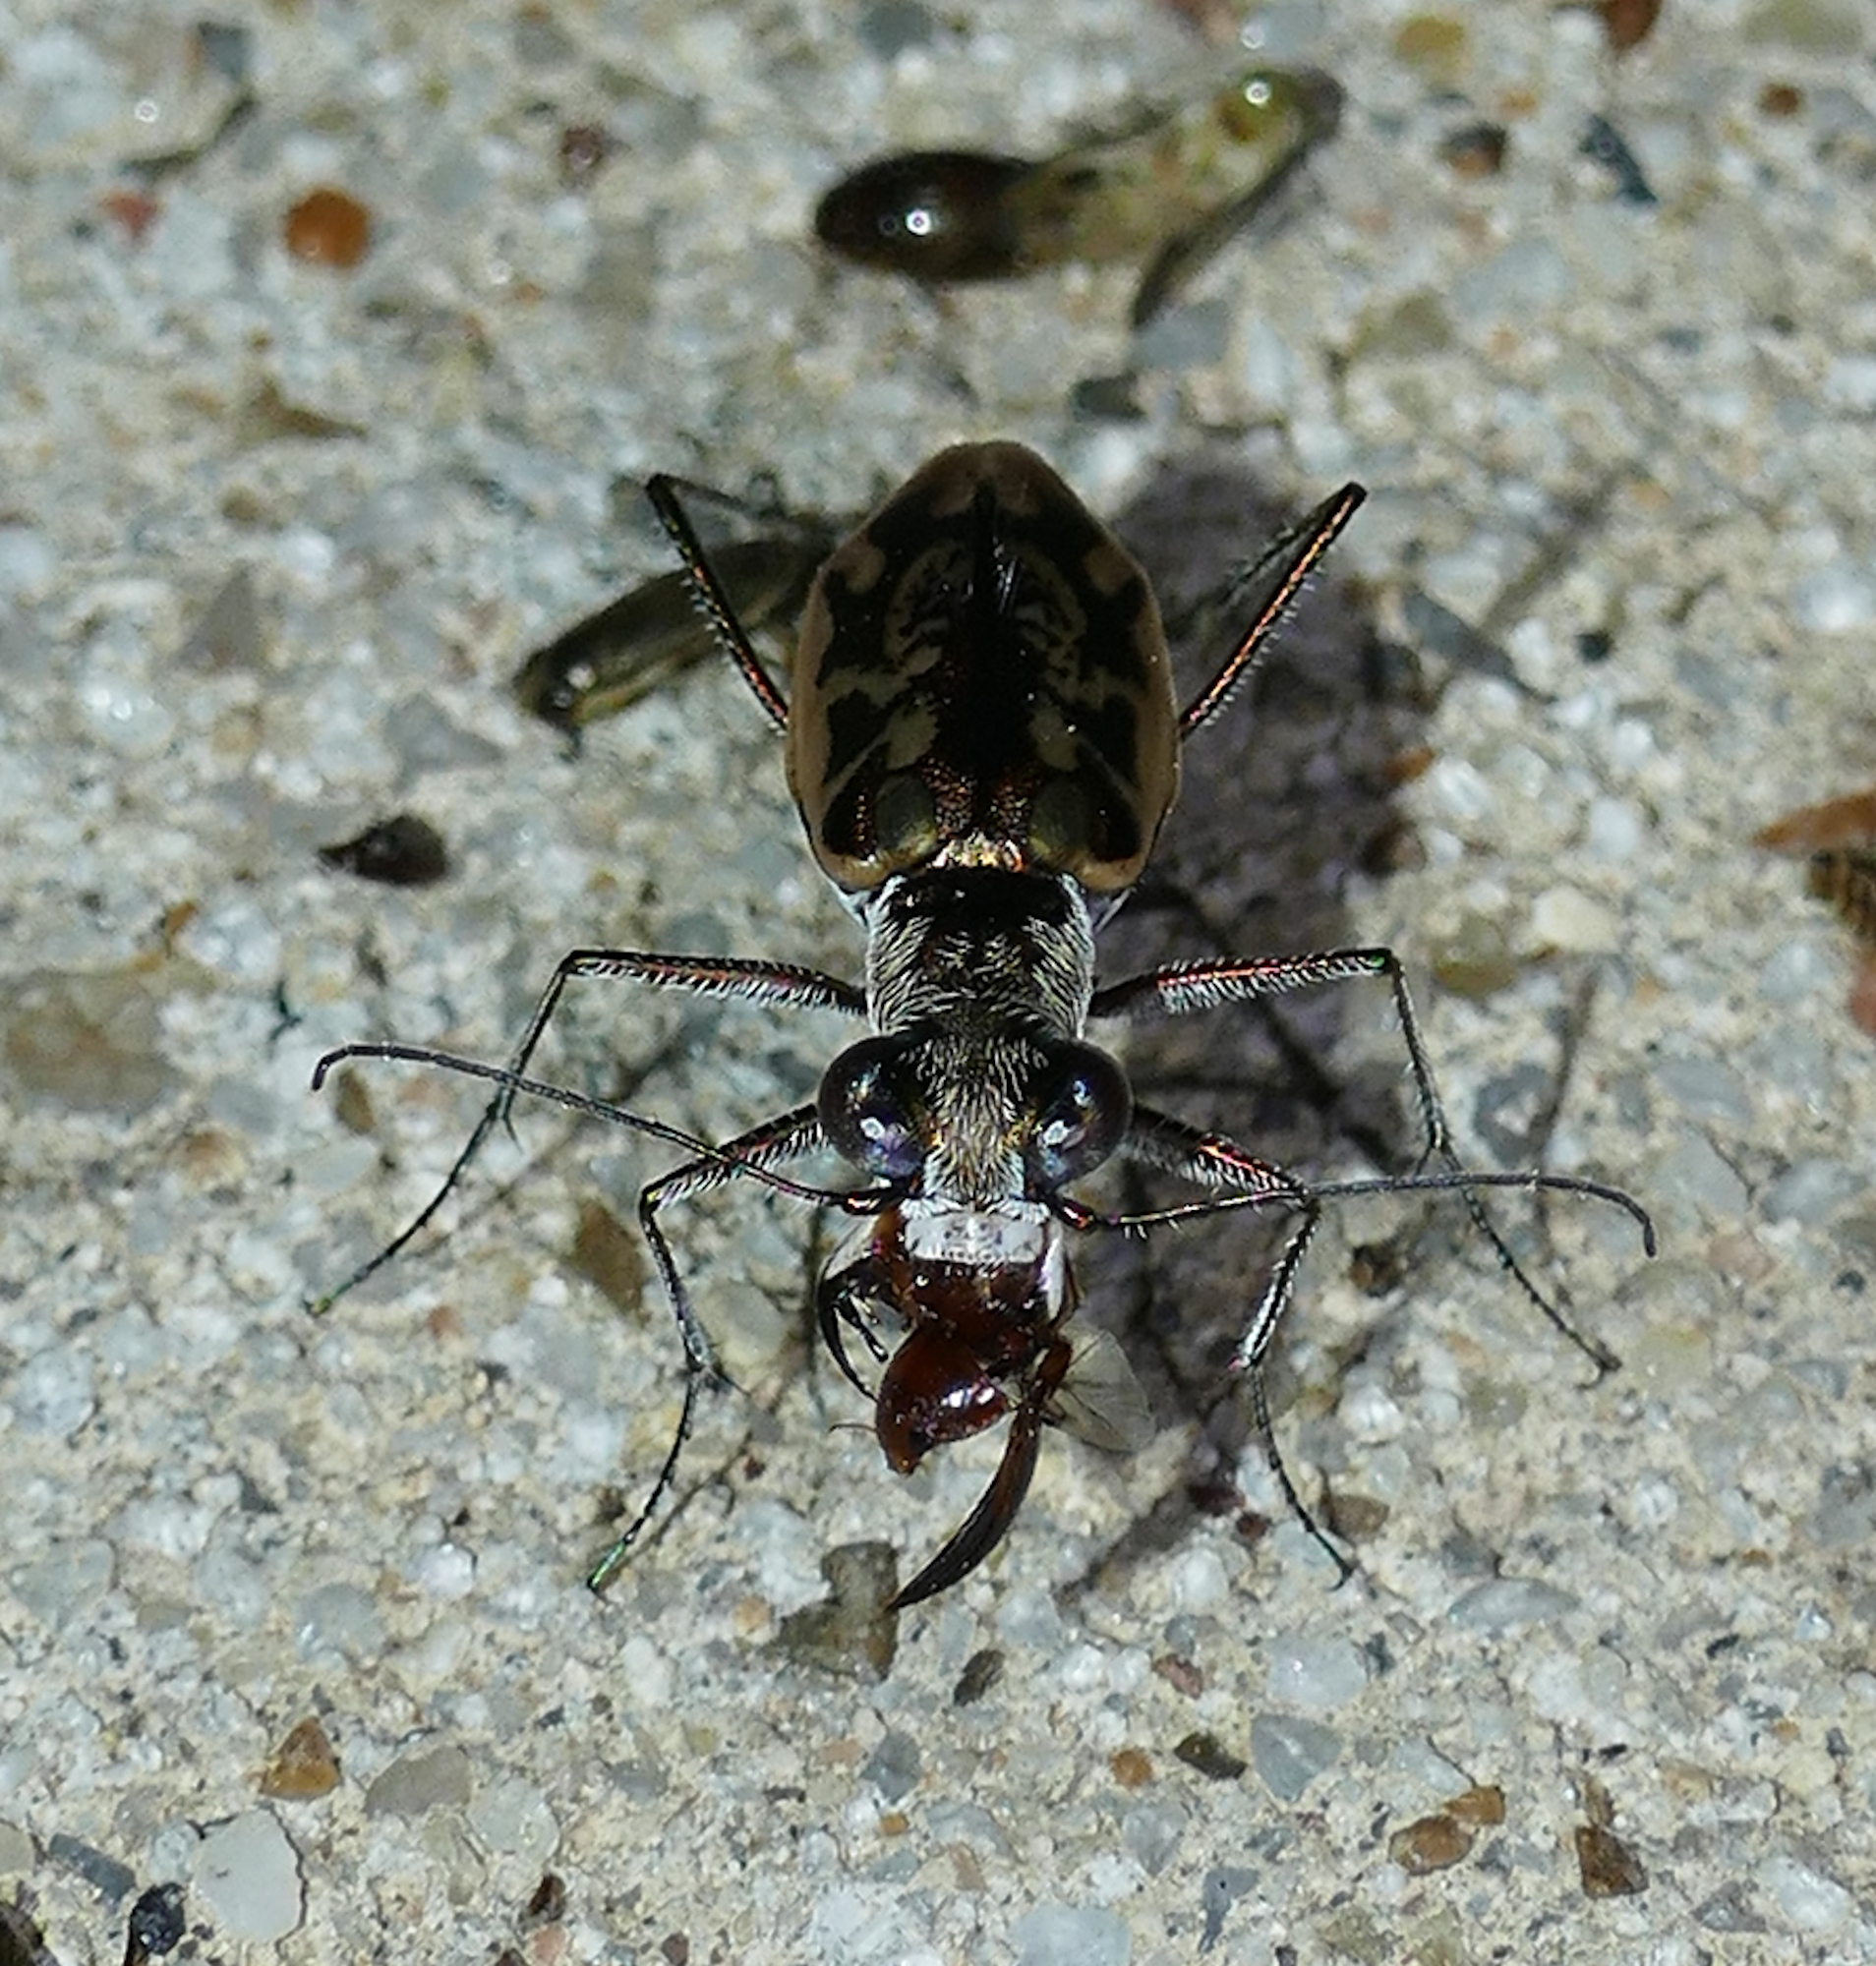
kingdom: Animalia
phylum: Arthropoda
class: Insecta
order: Coleoptera
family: Carabidae
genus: Ellipsoptera
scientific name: Ellipsoptera hamata
